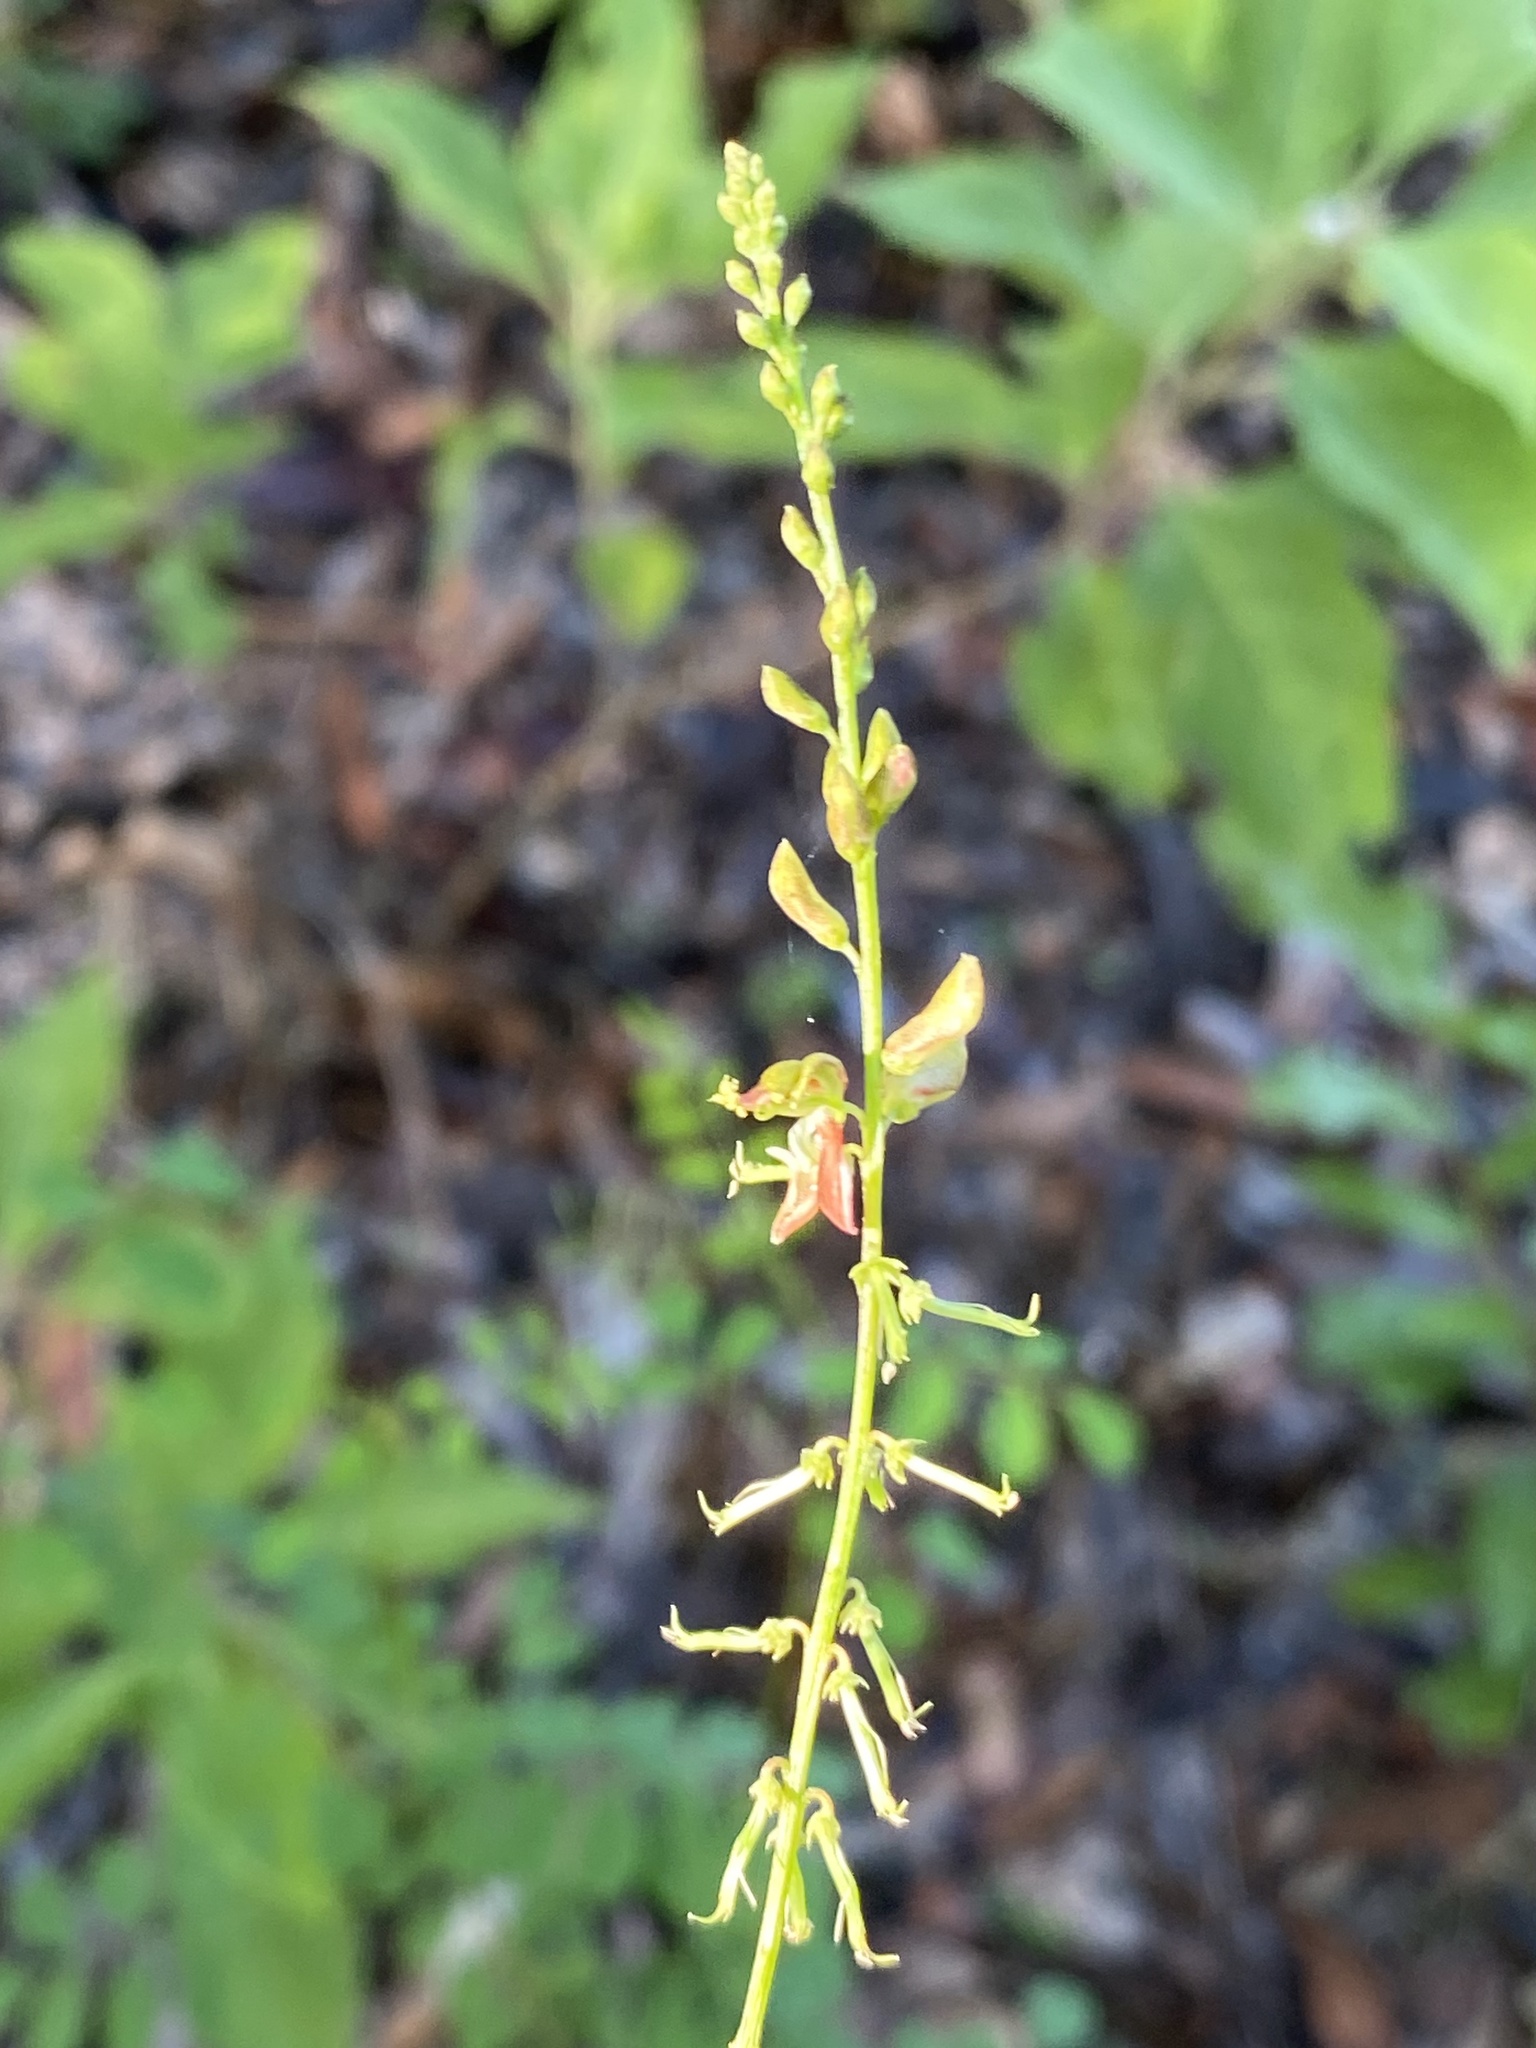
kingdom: Plantae
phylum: Tracheophyta
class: Magnoliopsida
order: Fabales
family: Fabaceae
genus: Indigofera
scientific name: Indigofera caroliniana
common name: Wild indigo
